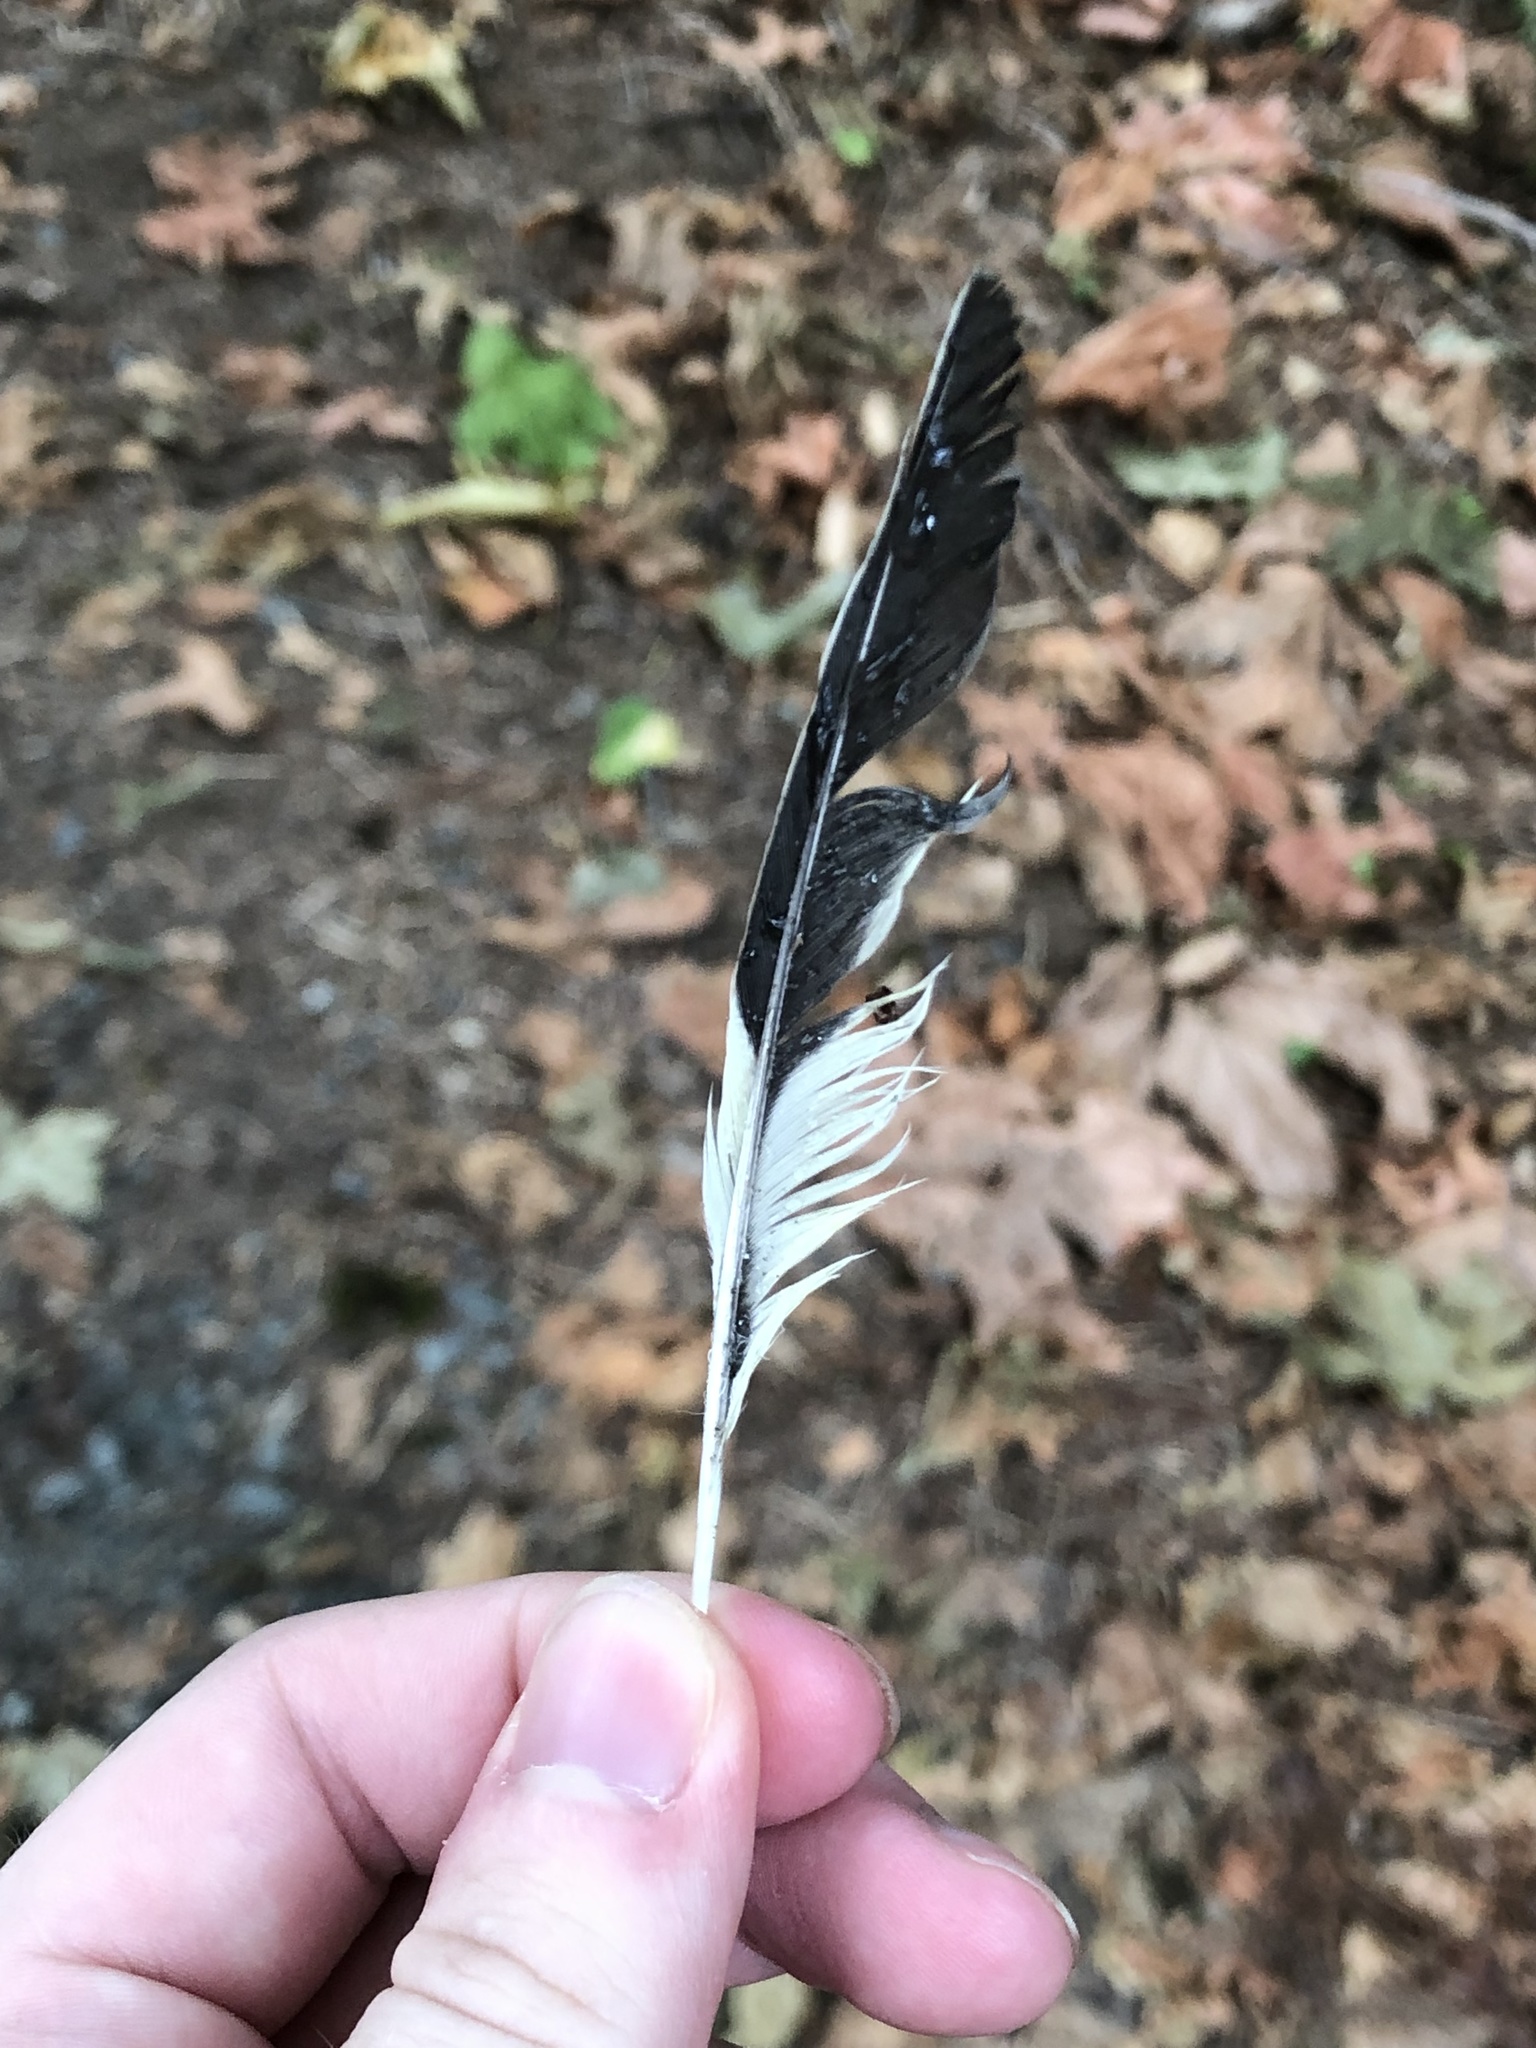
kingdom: Animalia
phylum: Chordata
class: Aves
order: Passeriformes
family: Cardinalidae
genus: Pheucticus
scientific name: Pheucticus melanocephalus
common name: Black-headed grosbeak
